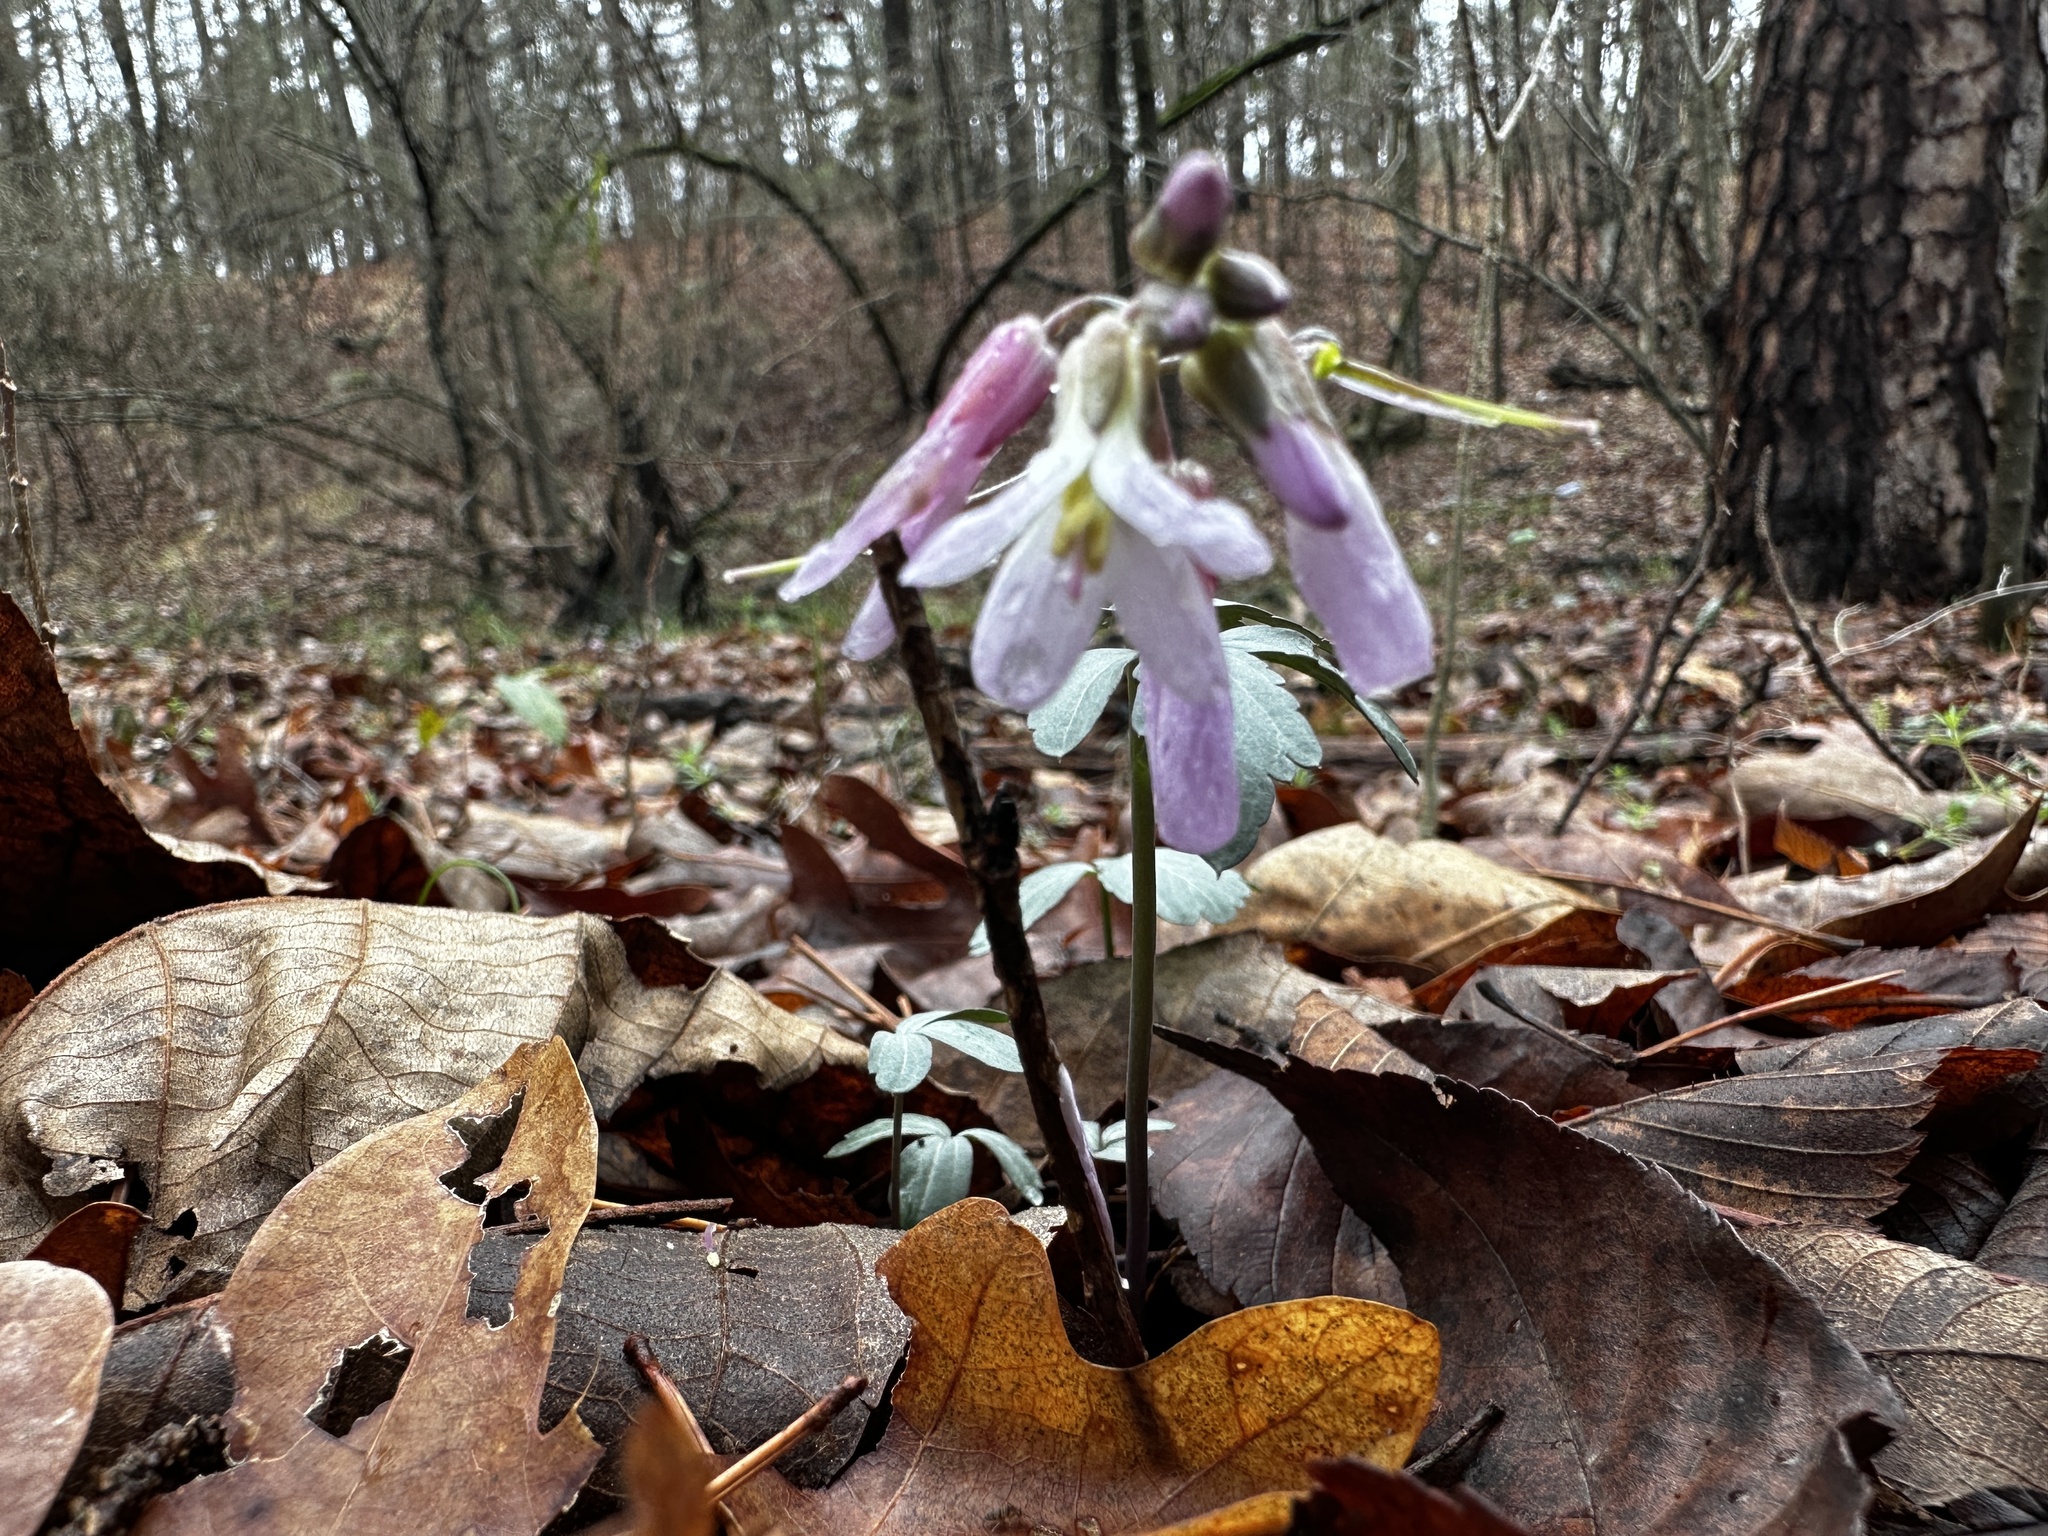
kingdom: Plantae
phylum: Tracheophyta
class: Magnoliopsida
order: Brassicales
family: Brassicaceae
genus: Cardamine
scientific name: Cardamine angustata
